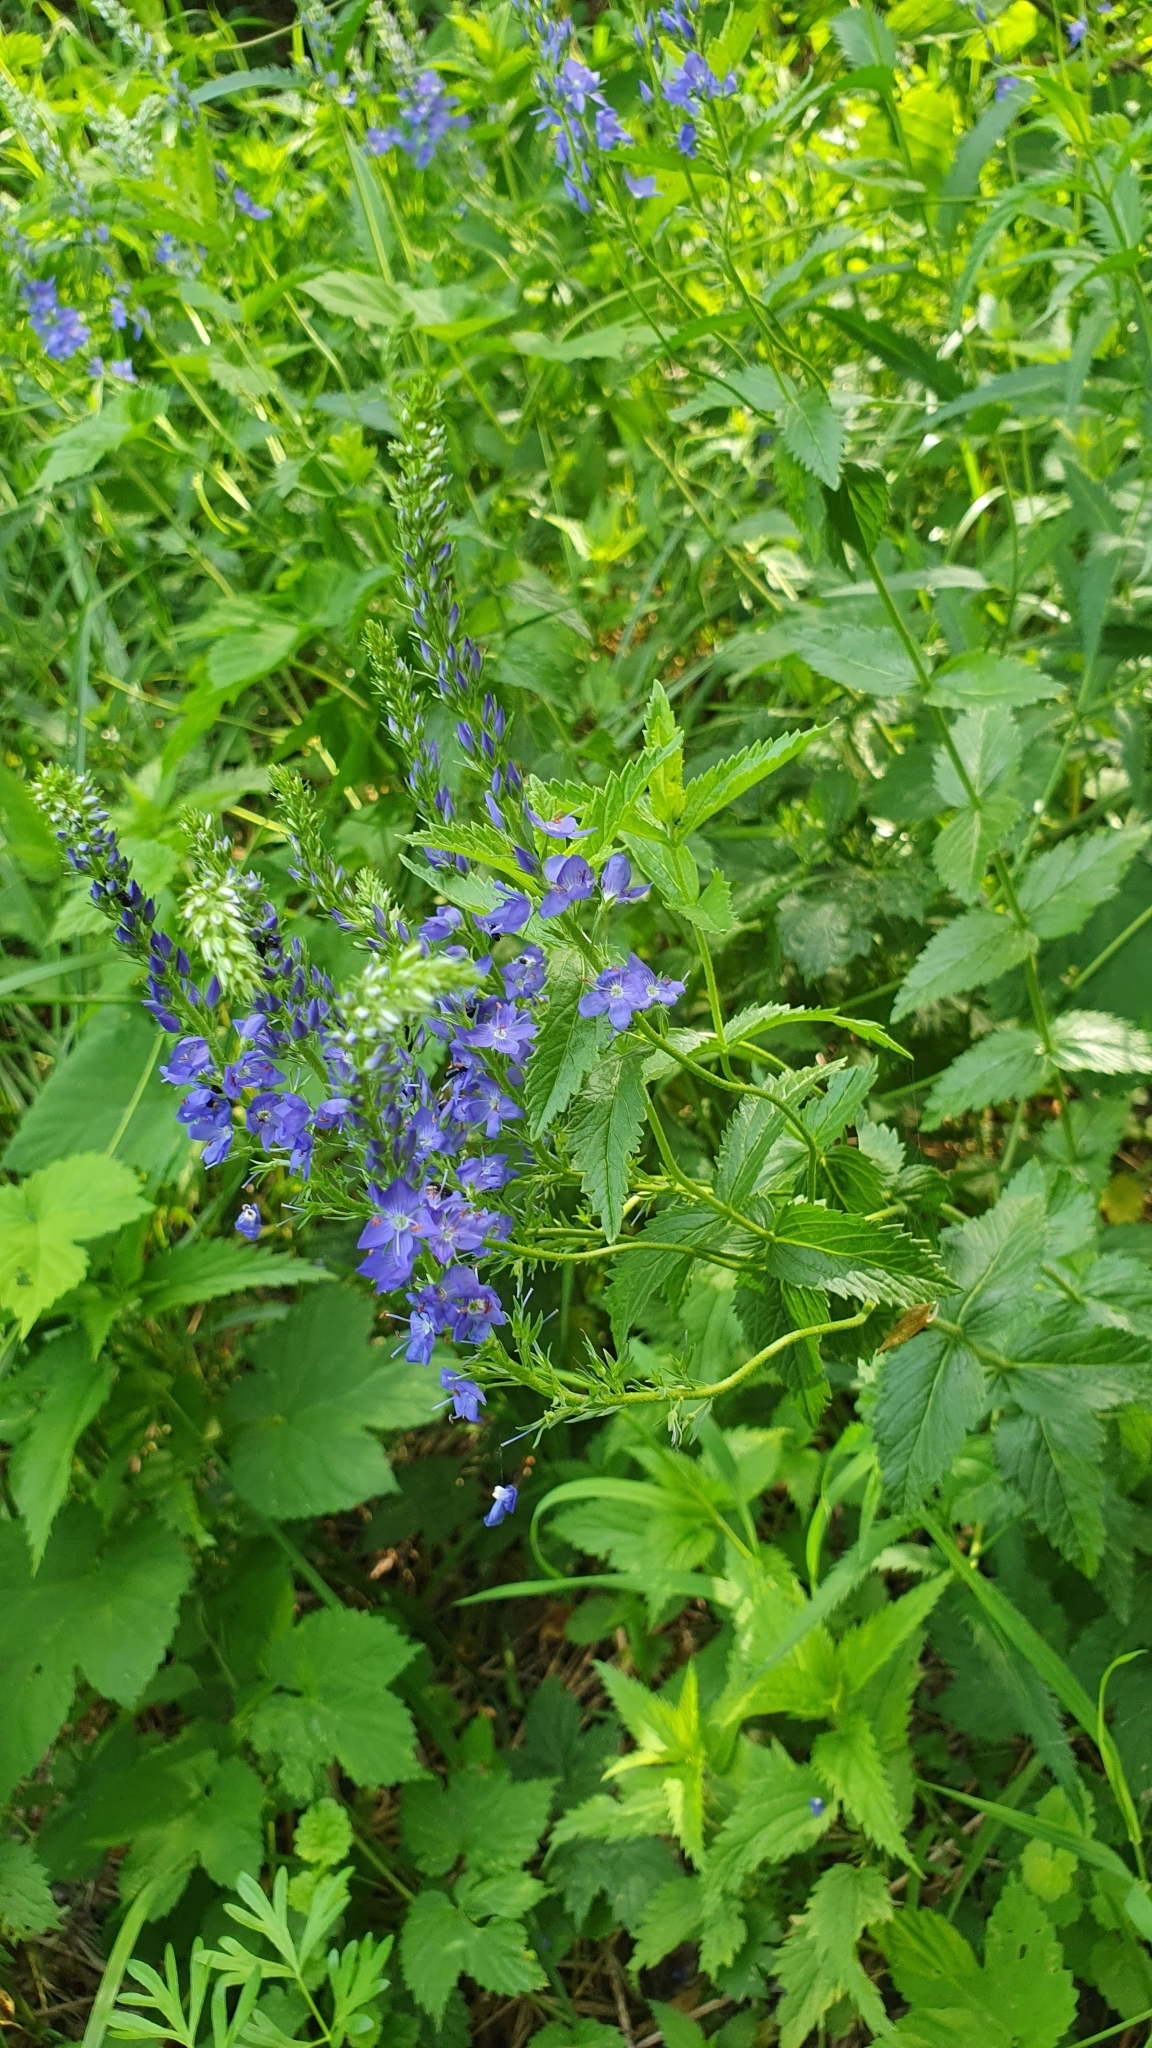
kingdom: Plantae
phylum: Tracheophyta
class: Magnoliopsida
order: Lamiales
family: Plantaginaceae
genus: Veronica
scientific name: Veronica teucrium
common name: Large speedwell
